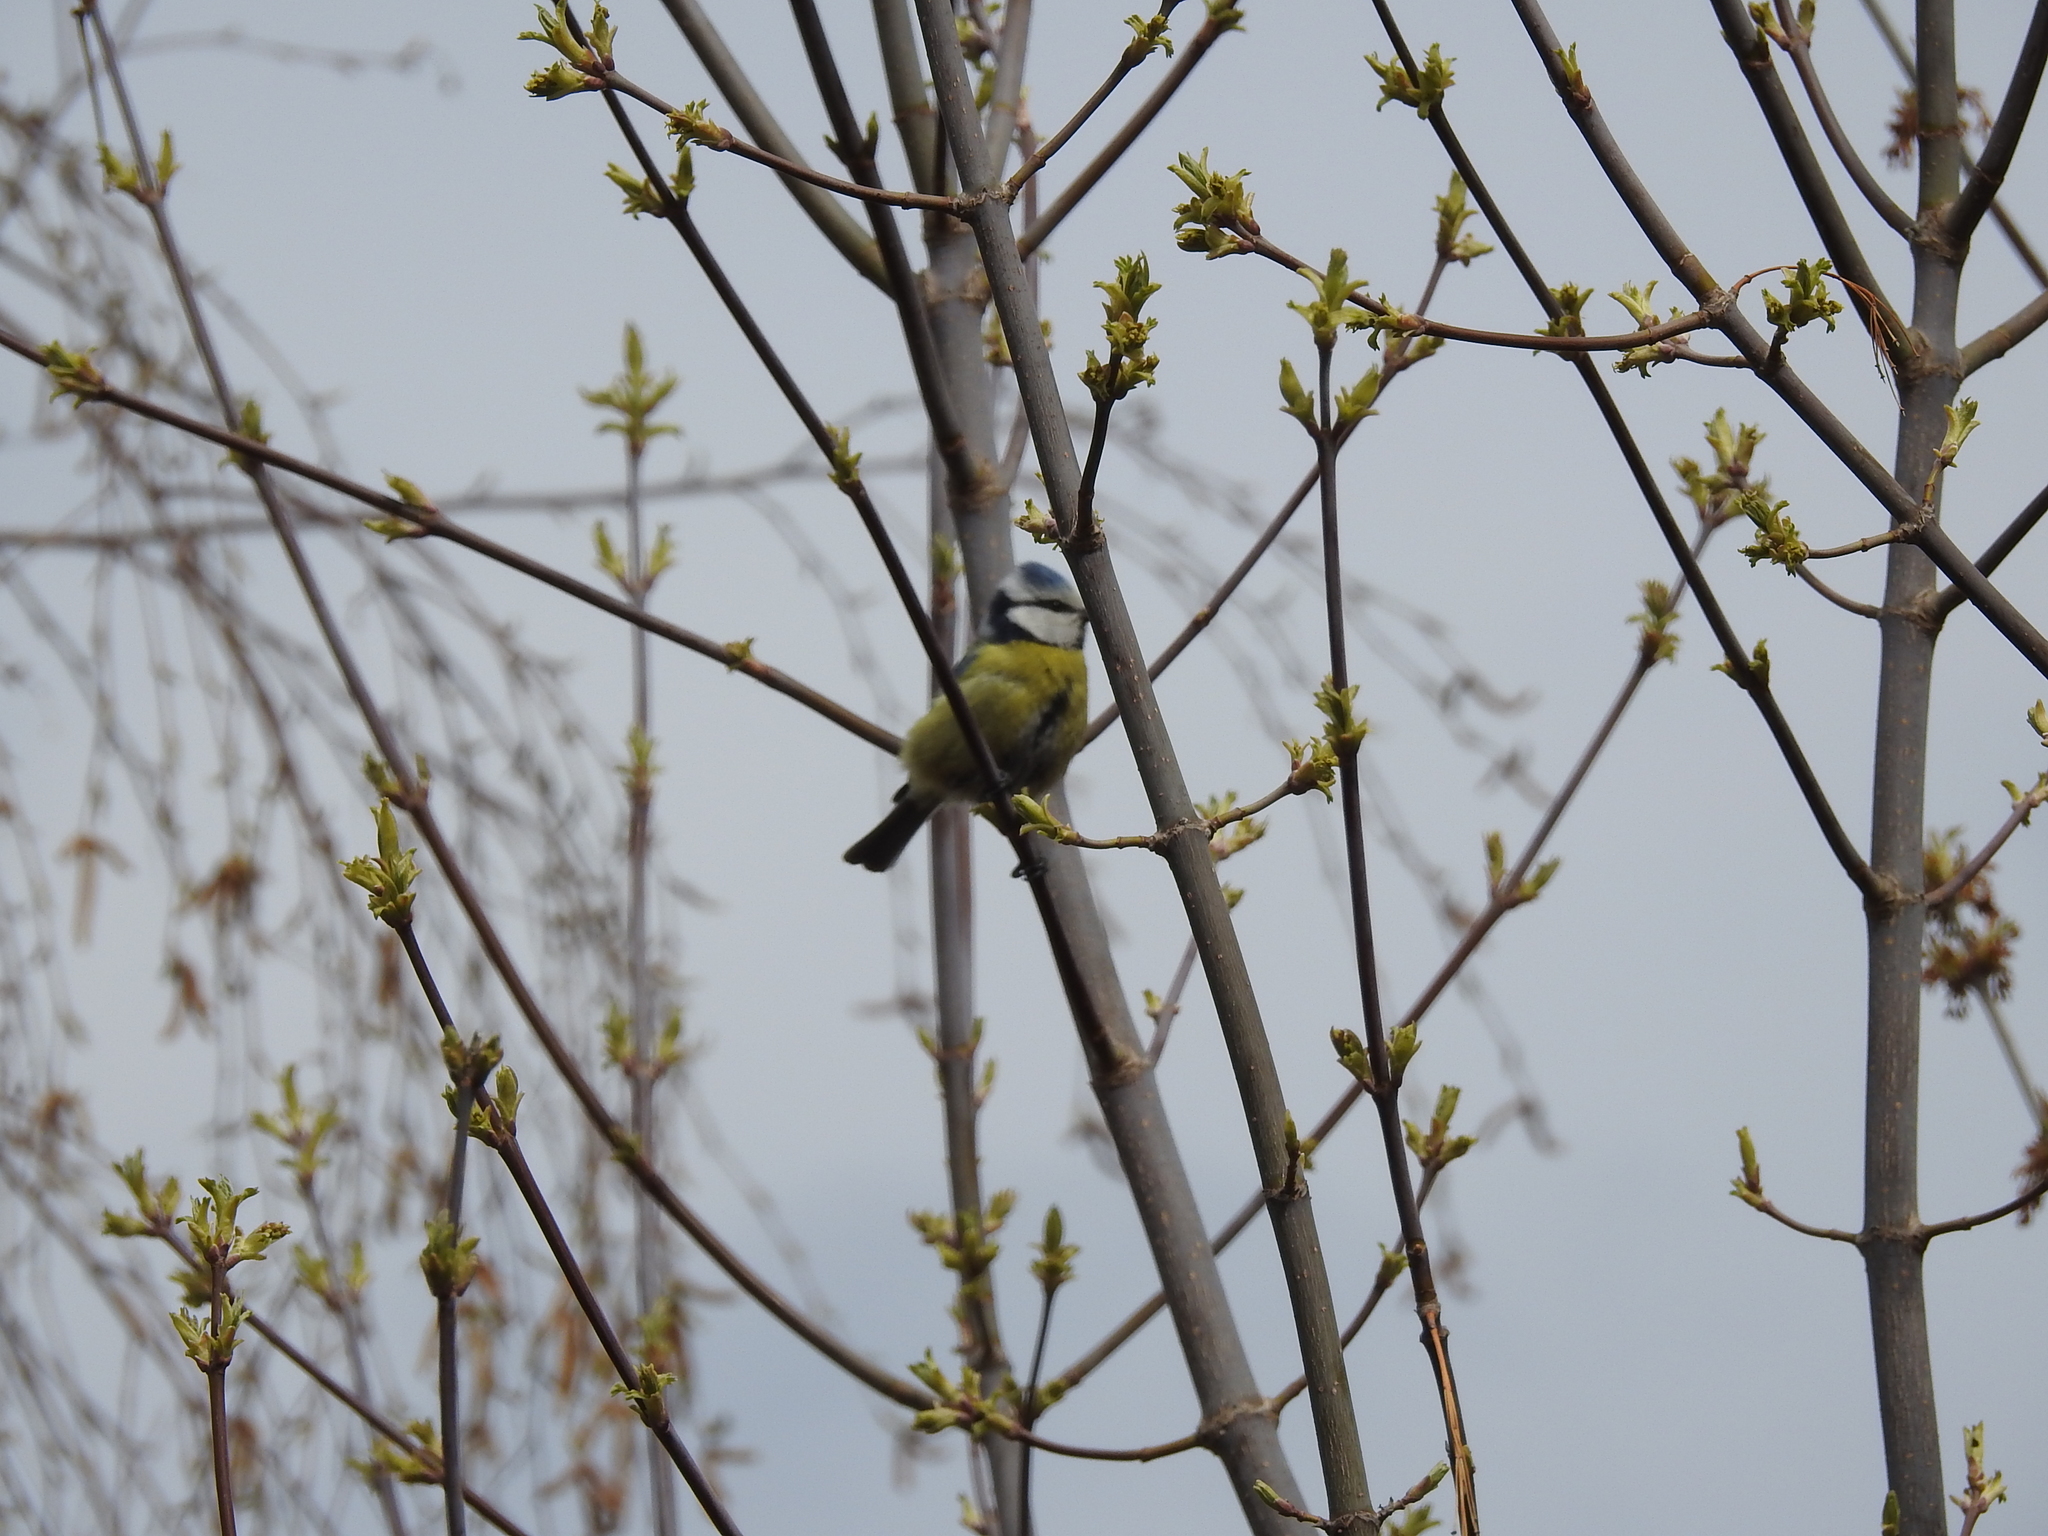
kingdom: Animalia
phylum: Chordata
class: Aves
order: Passeriformes
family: Paridae
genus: Cyanistes
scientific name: Cyanistes caeruleus
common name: Eurasian blue tit
